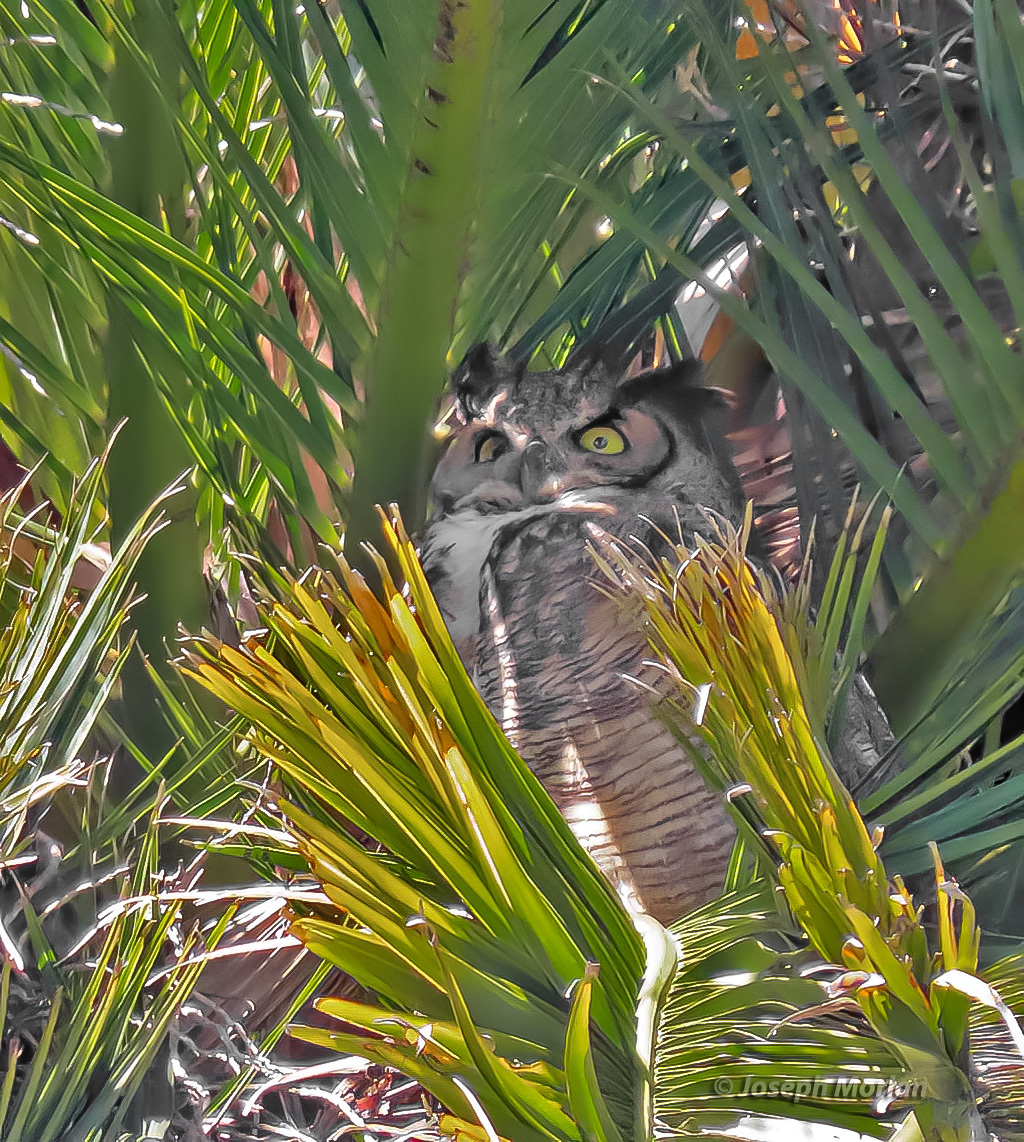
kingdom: Animalia
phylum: Chordata
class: Aves
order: Strigiformes
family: Strigidae
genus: Bubo
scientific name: Bubo virginianus
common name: Great horned owl
